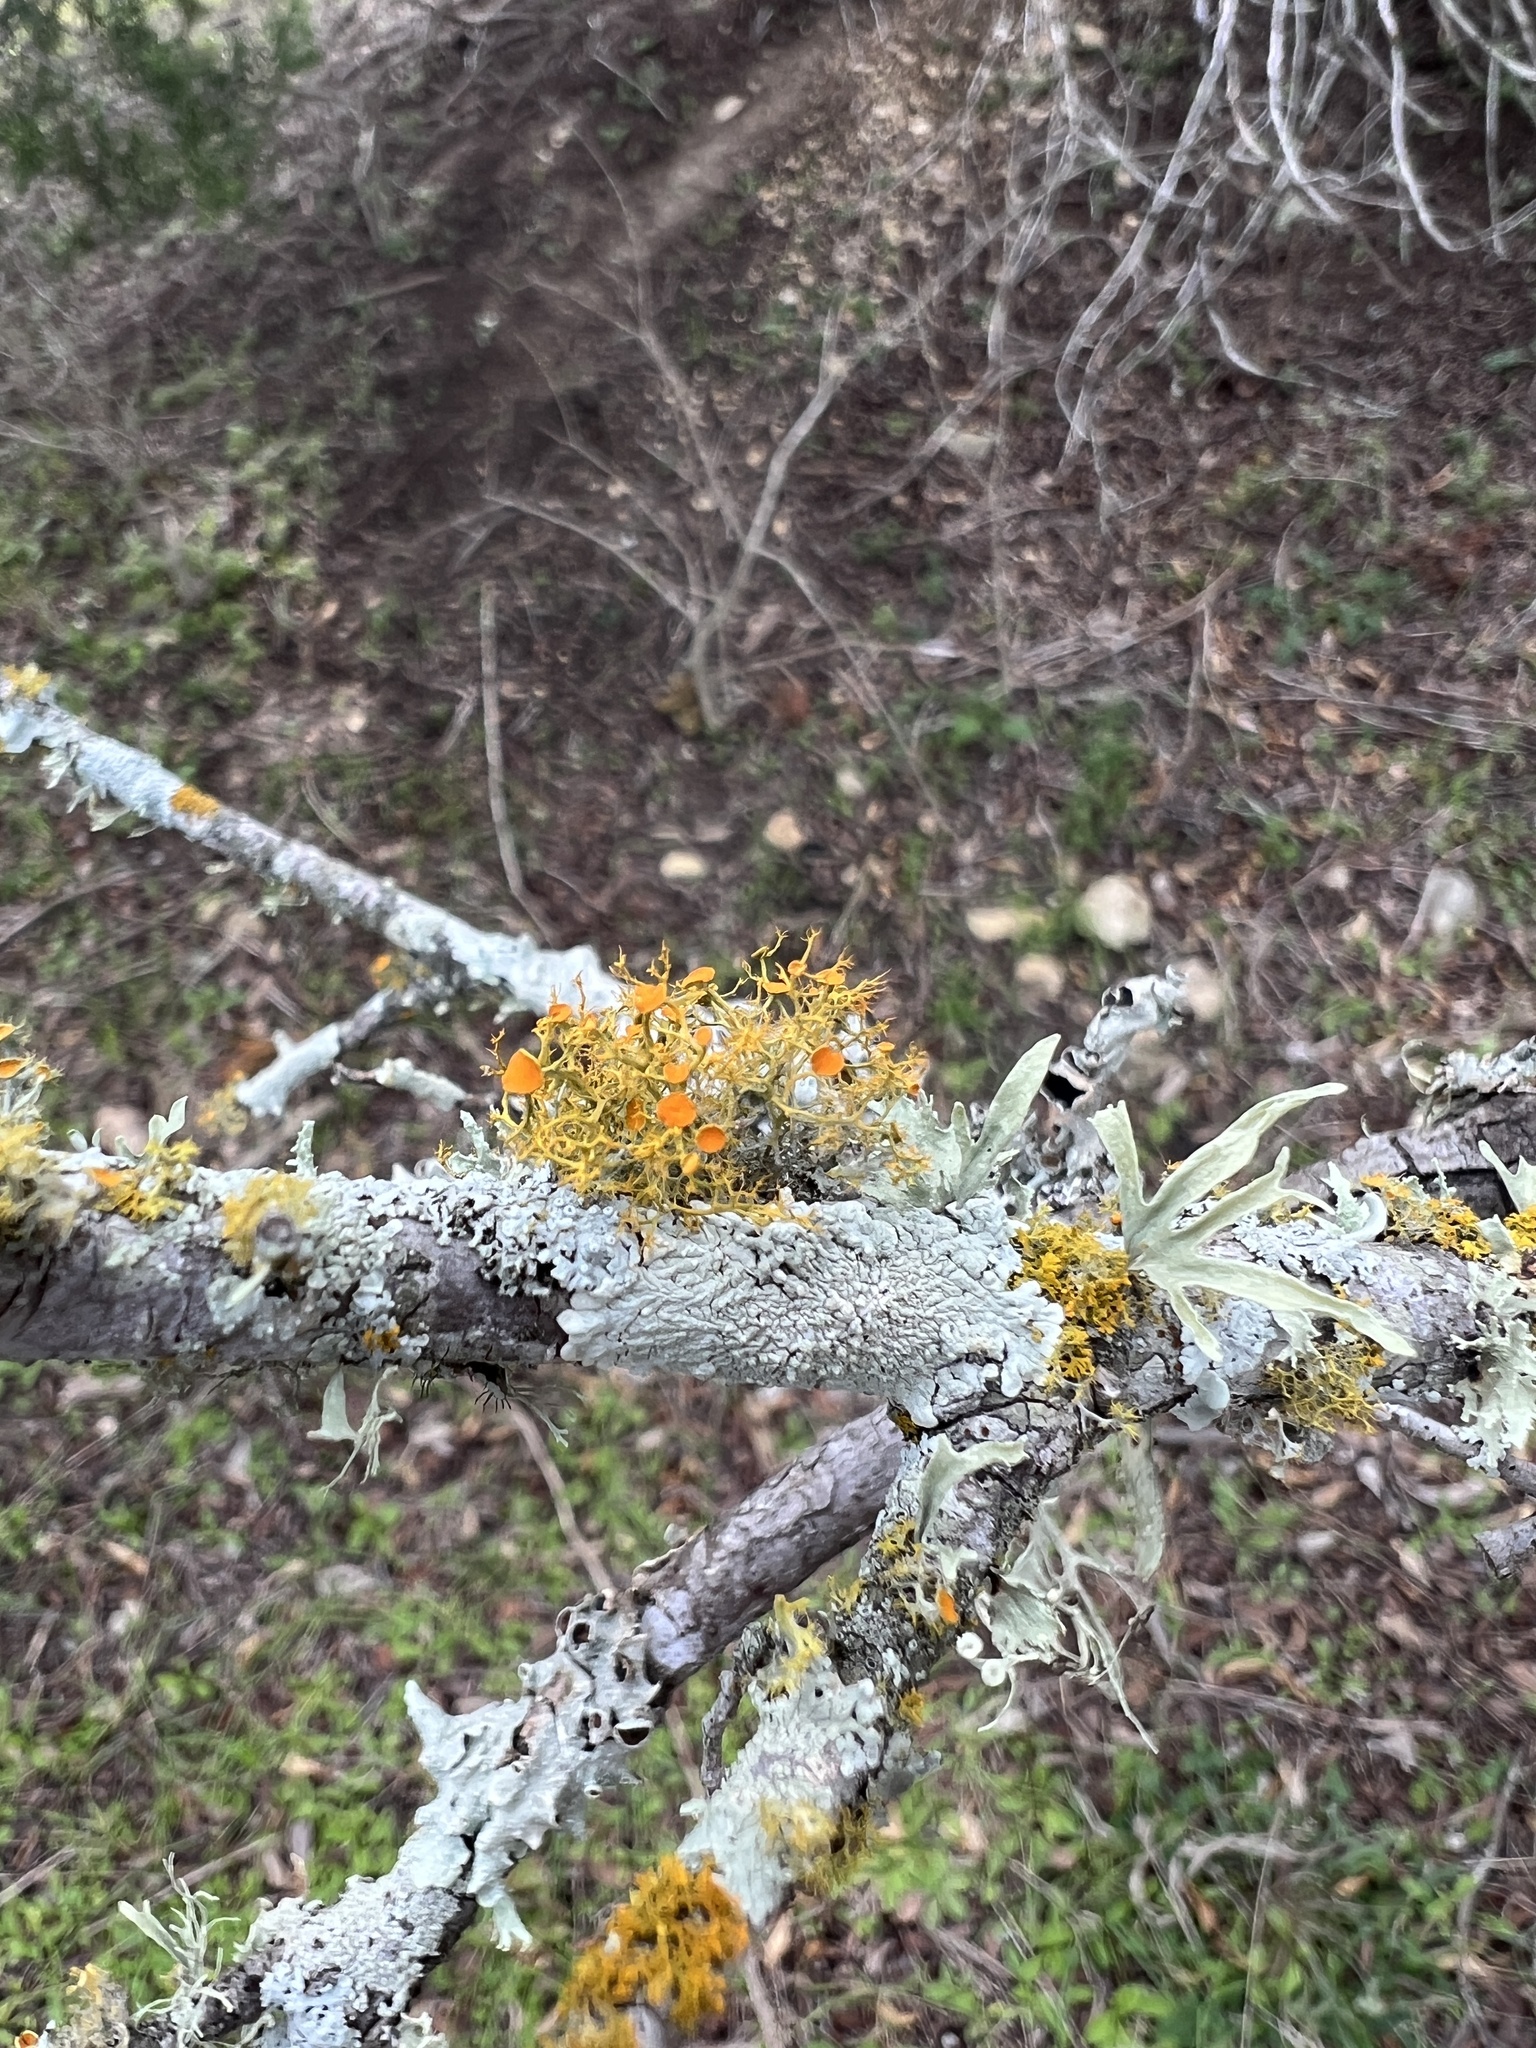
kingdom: Fungi
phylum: Ascomycota
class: Lecanoromycetes
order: Teloschistales
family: Teloschistaceae
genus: Teloschistes
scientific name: Teloschistes exilis
